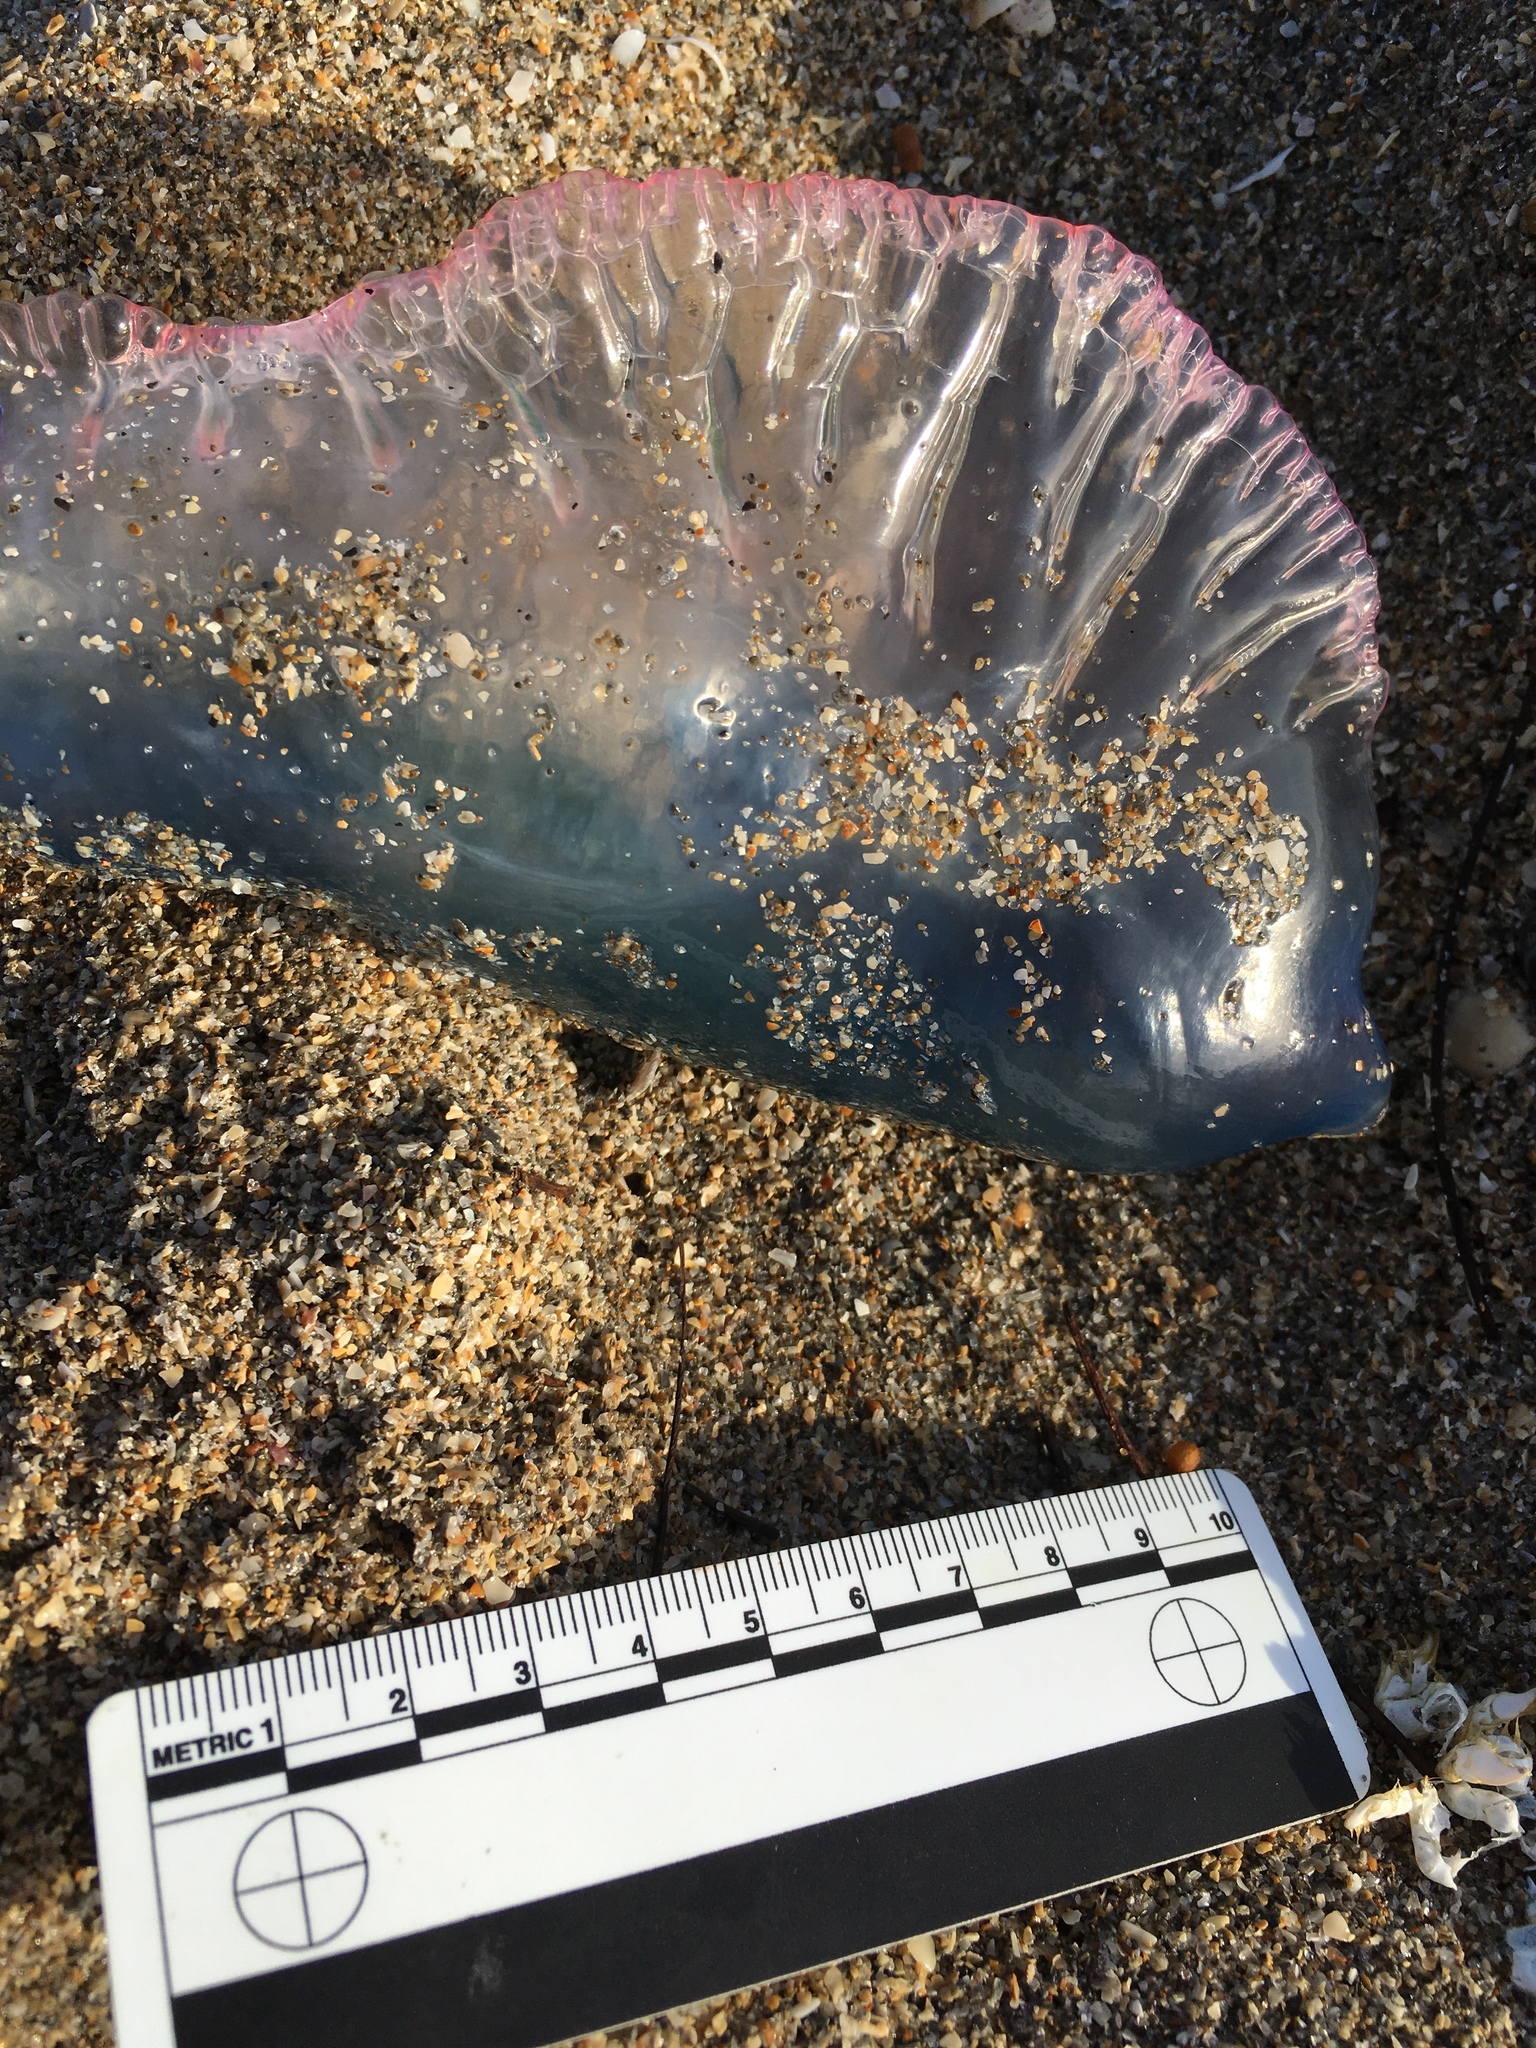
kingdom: Animalia
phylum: Cnidaria
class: Hydrozoa
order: Siphonophorae
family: Physaliidae
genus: Physalia
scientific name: Physalia physalis
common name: Portuguese man-of-war
